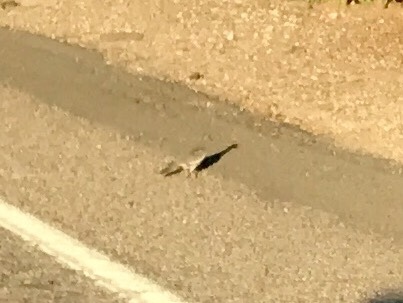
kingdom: Animalia
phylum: Chordata
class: Aves
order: Columbiformes
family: Columbidae
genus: Zenaida
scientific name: Zenaida asiatica
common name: White-winged dove
